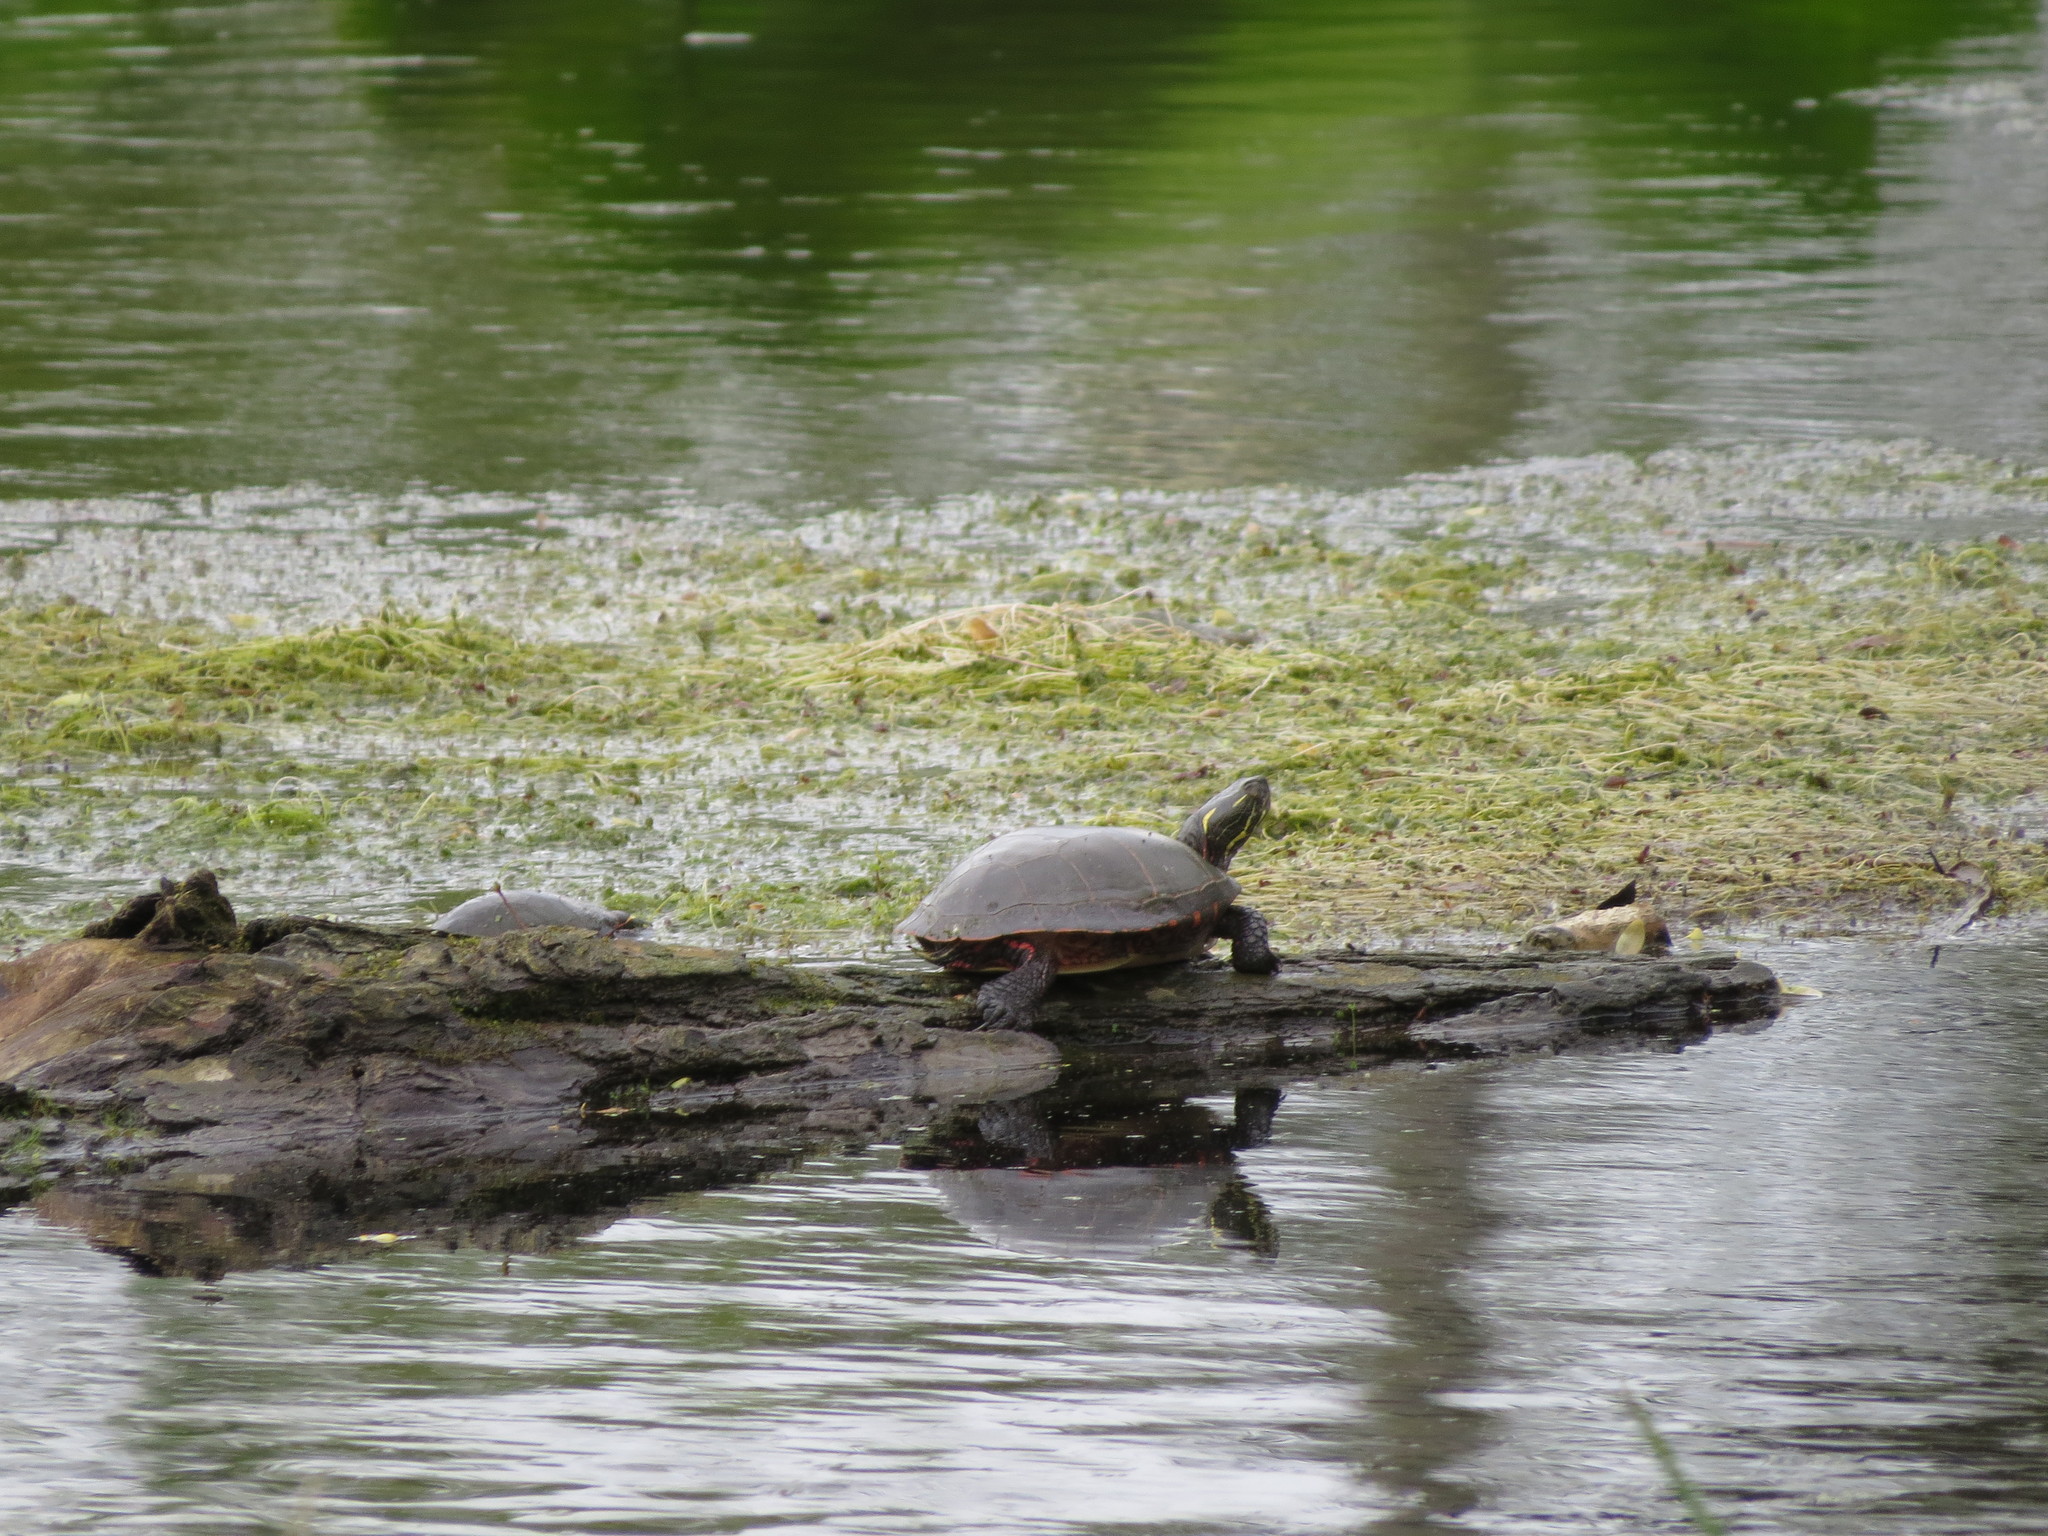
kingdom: Animalia
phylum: Chordata
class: Testudines
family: Emydidae
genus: Chrysemys
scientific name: Chrysemys picta
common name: Painted turtle
